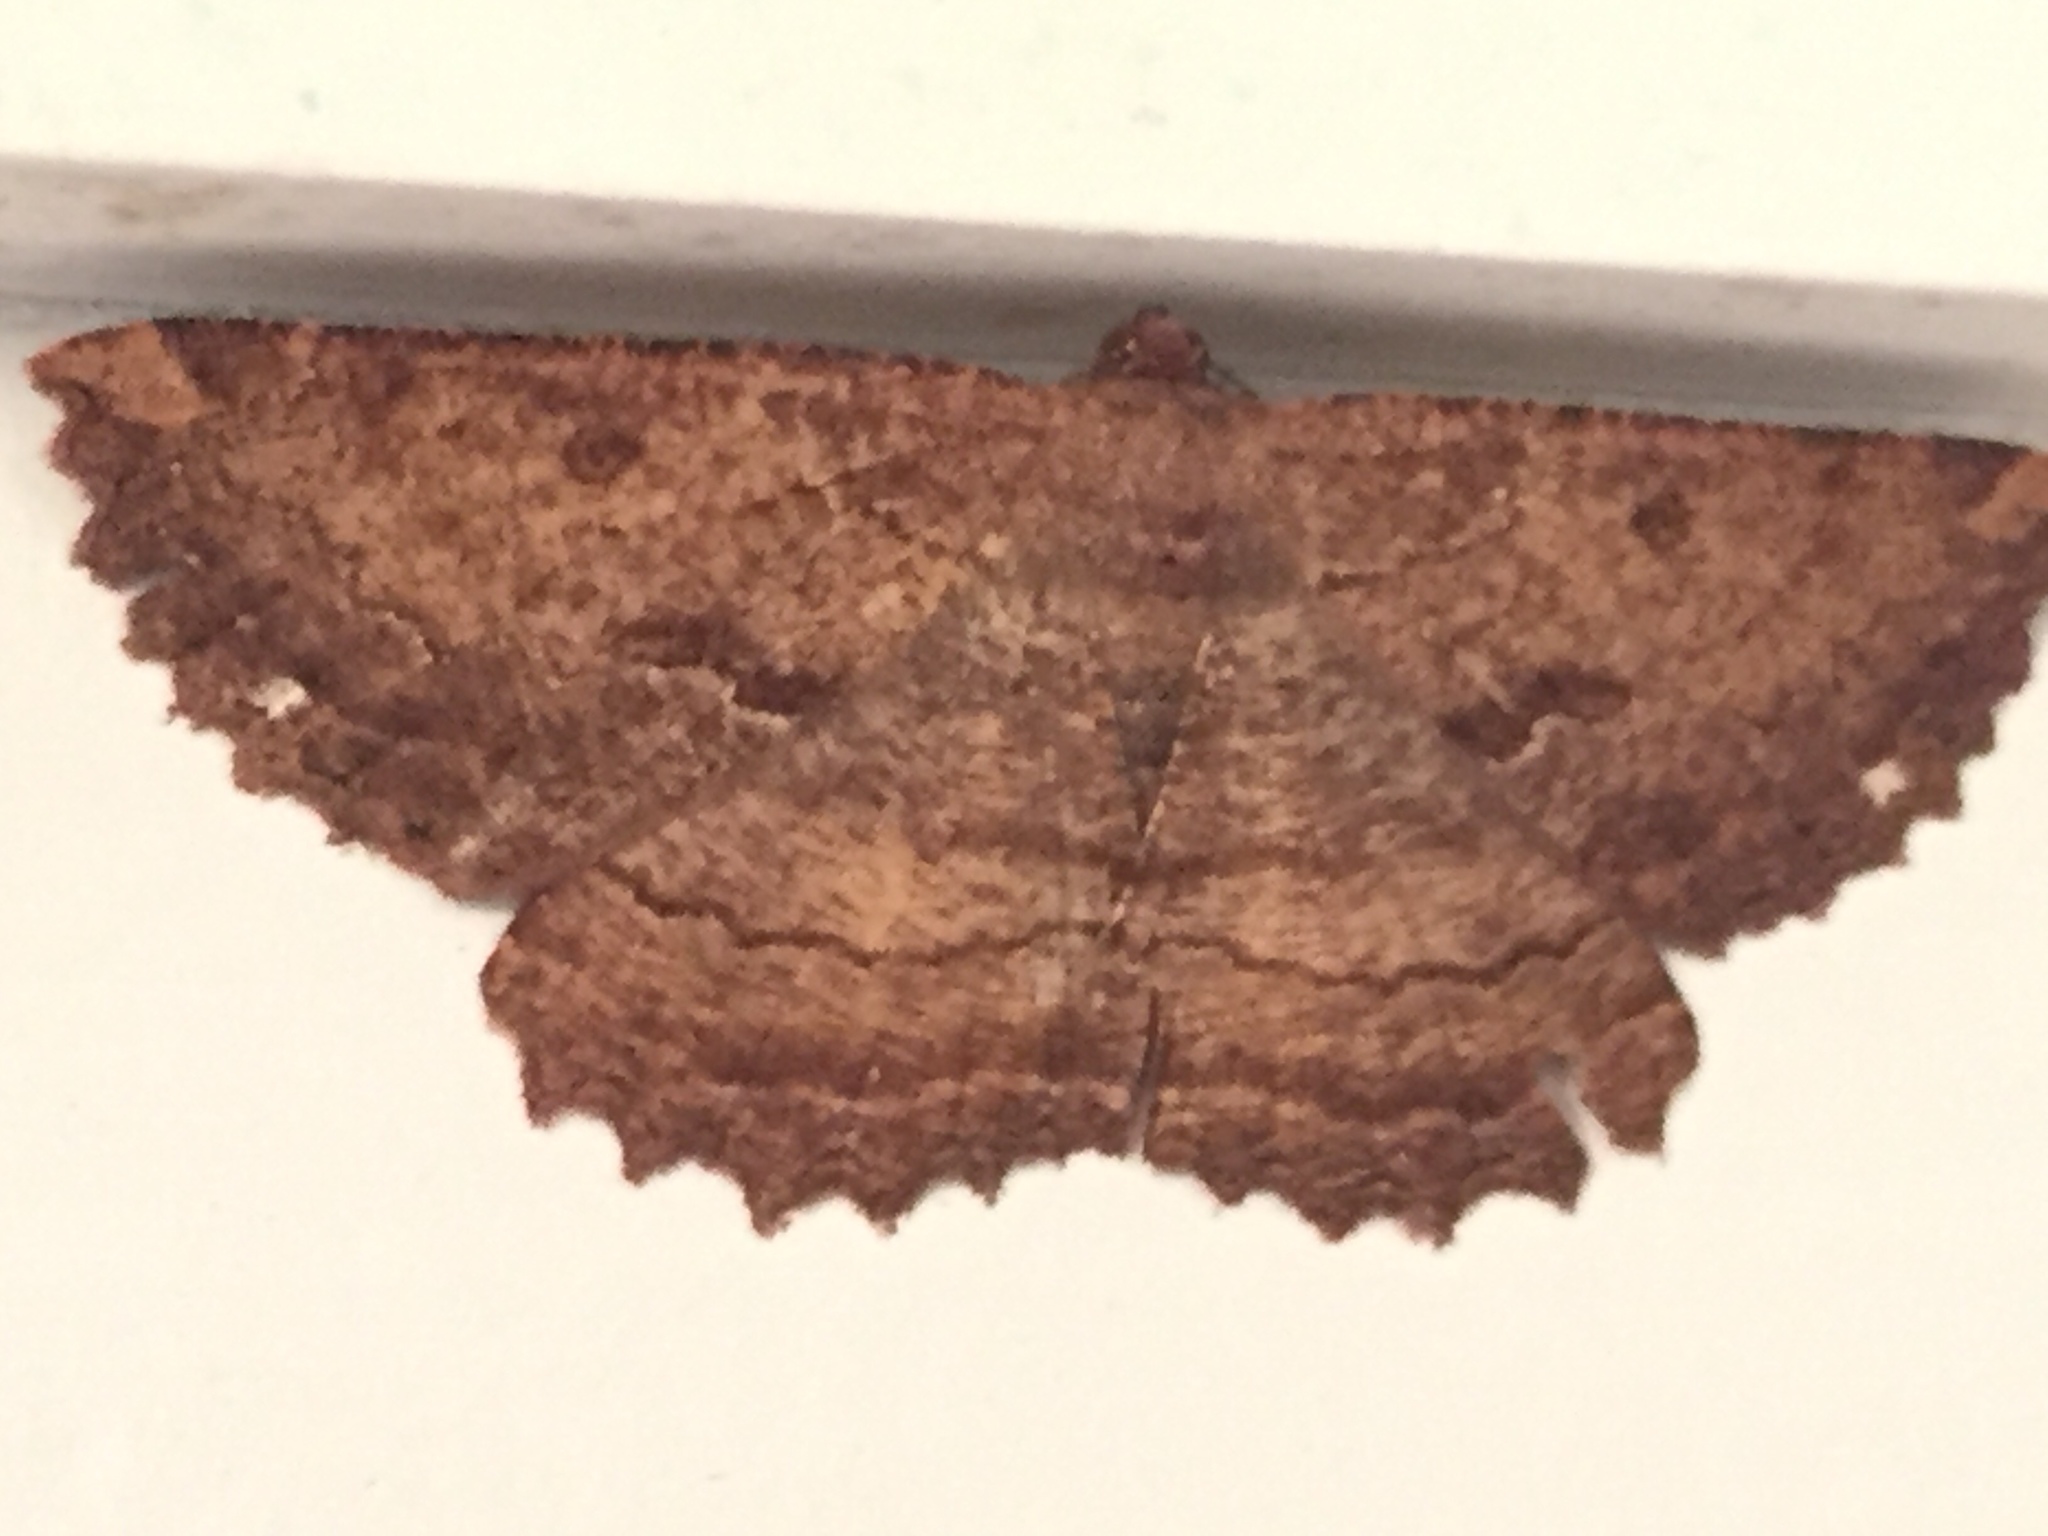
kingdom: Animalia
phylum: Arthropoda
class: Insecta
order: Lepidoptera
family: Geometridae
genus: Gellonia
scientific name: Gellonia dejectaria
